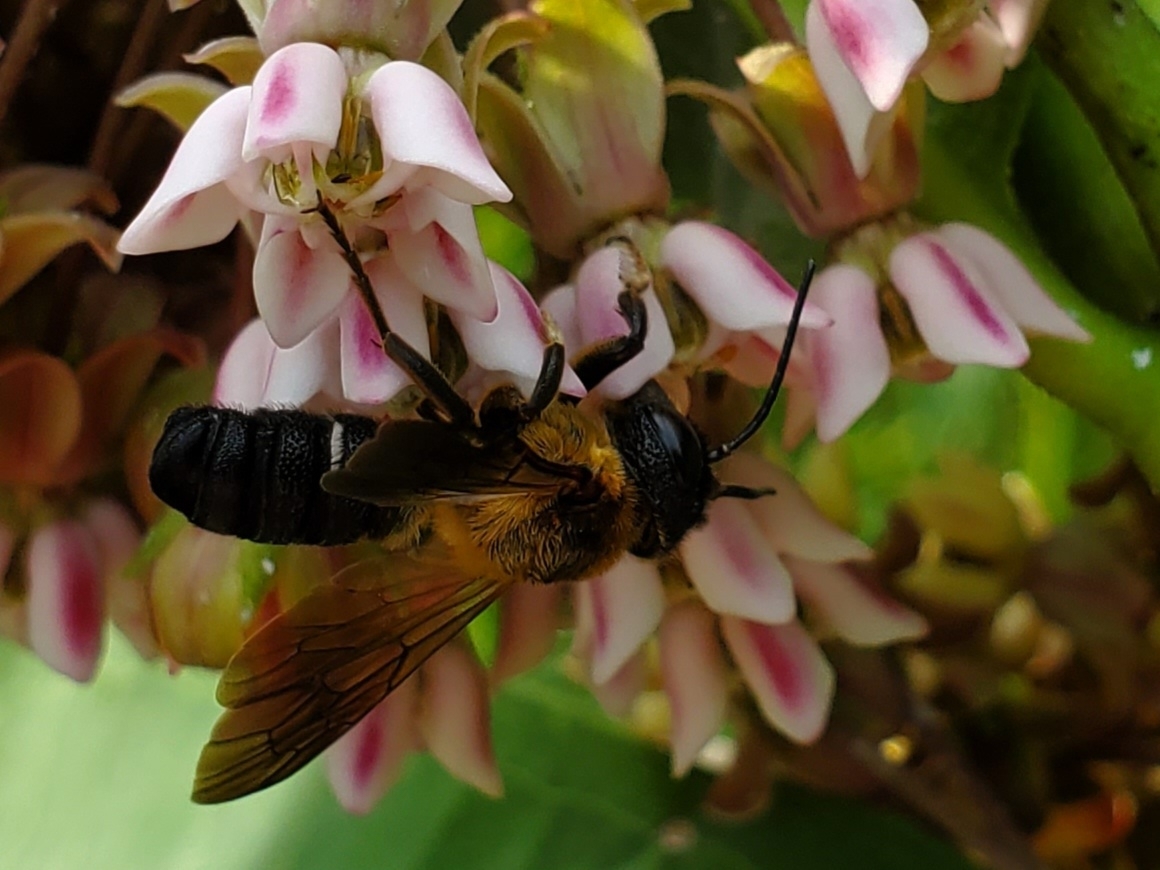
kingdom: Animalia
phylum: Arthropoda
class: Insecta
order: Hymenoptera
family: Megachilidae
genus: Megachile
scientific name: Megachile sculpturalis
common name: Sculptured resin bee
